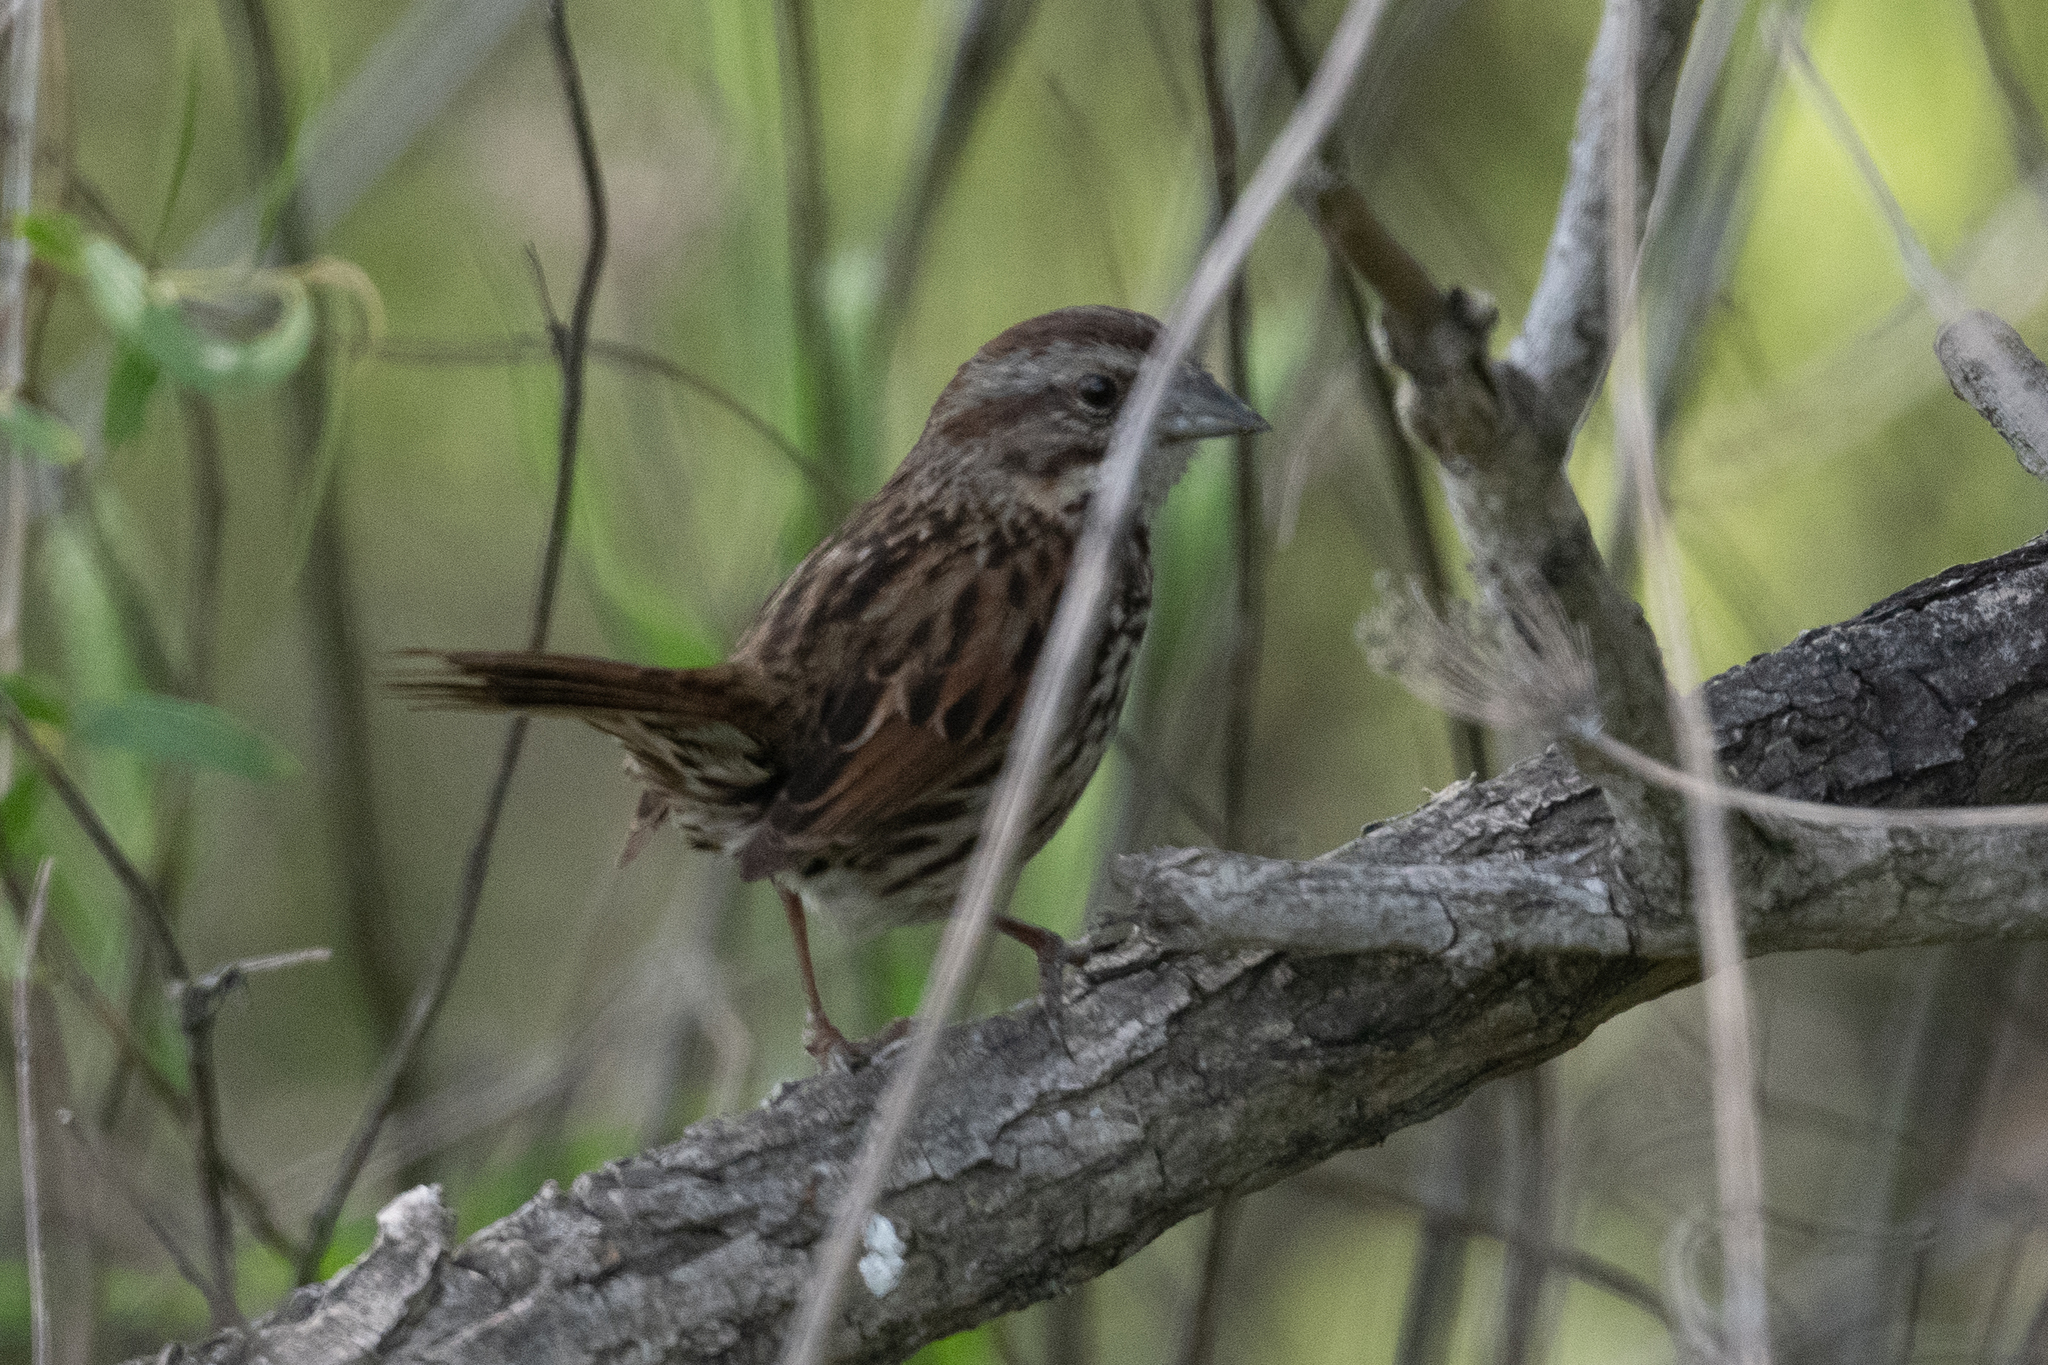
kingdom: Animalia
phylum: Chordata
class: Aves
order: Passeriformes
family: Passerellidae
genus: Melospiza
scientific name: Melospiza melodia
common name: Song sparrow
